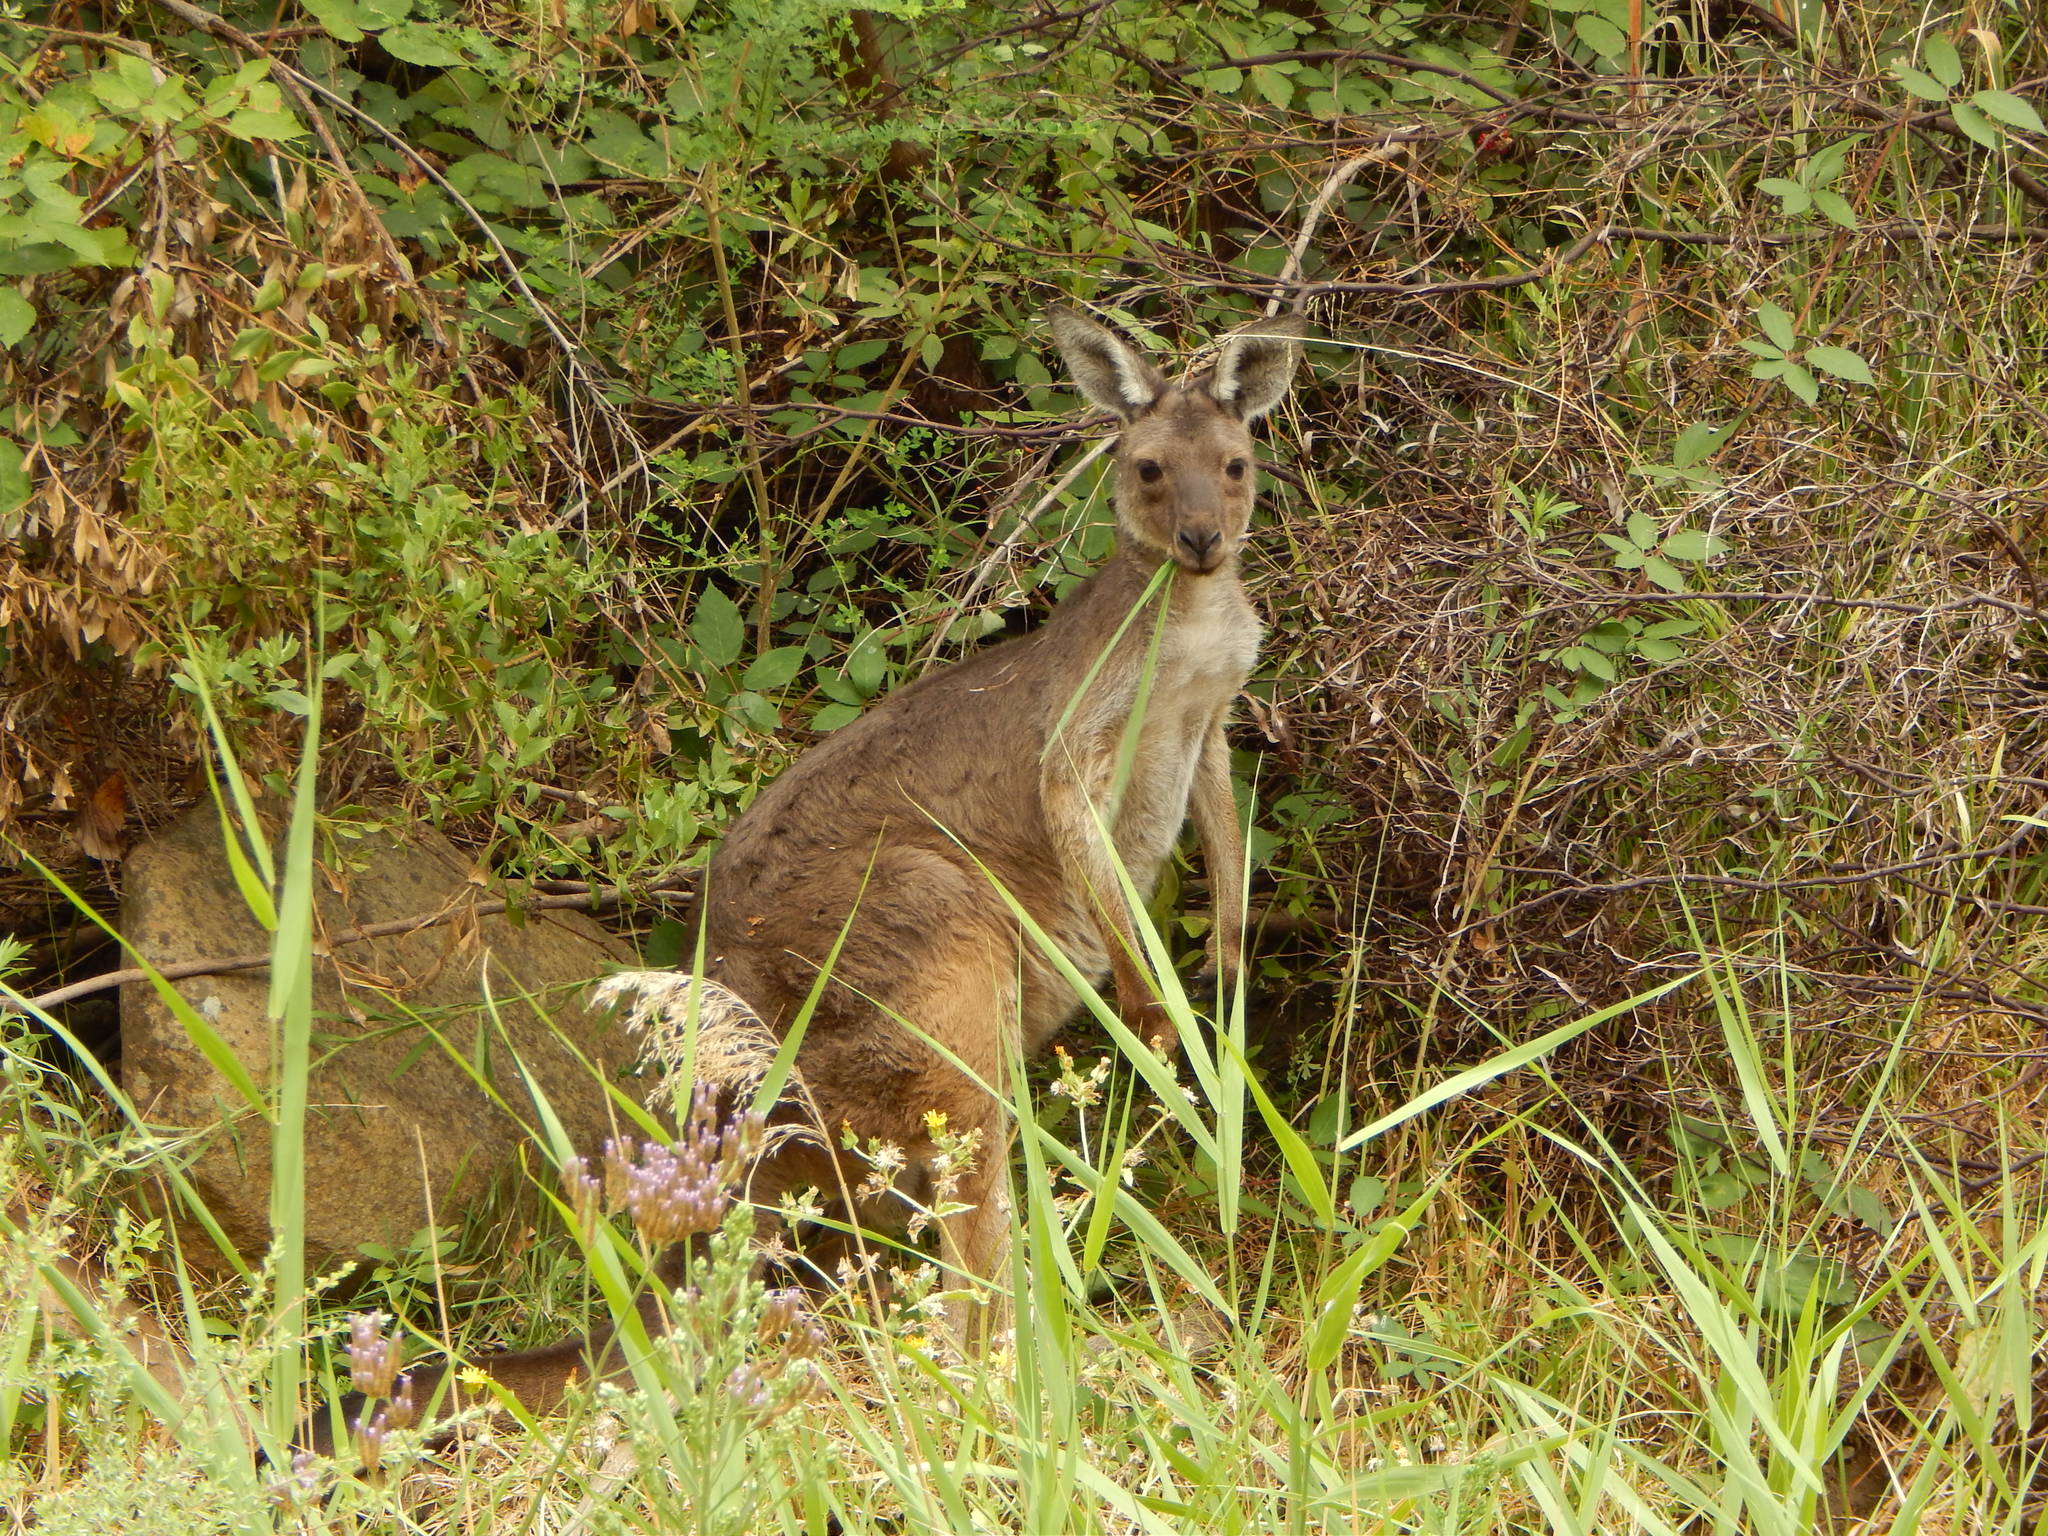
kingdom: Animalia
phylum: Chordata
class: Mammalia
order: Diprotodontia
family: Macropodidae
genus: Macropus
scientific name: Macropus fuliginosus
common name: Western grey kangaroo
